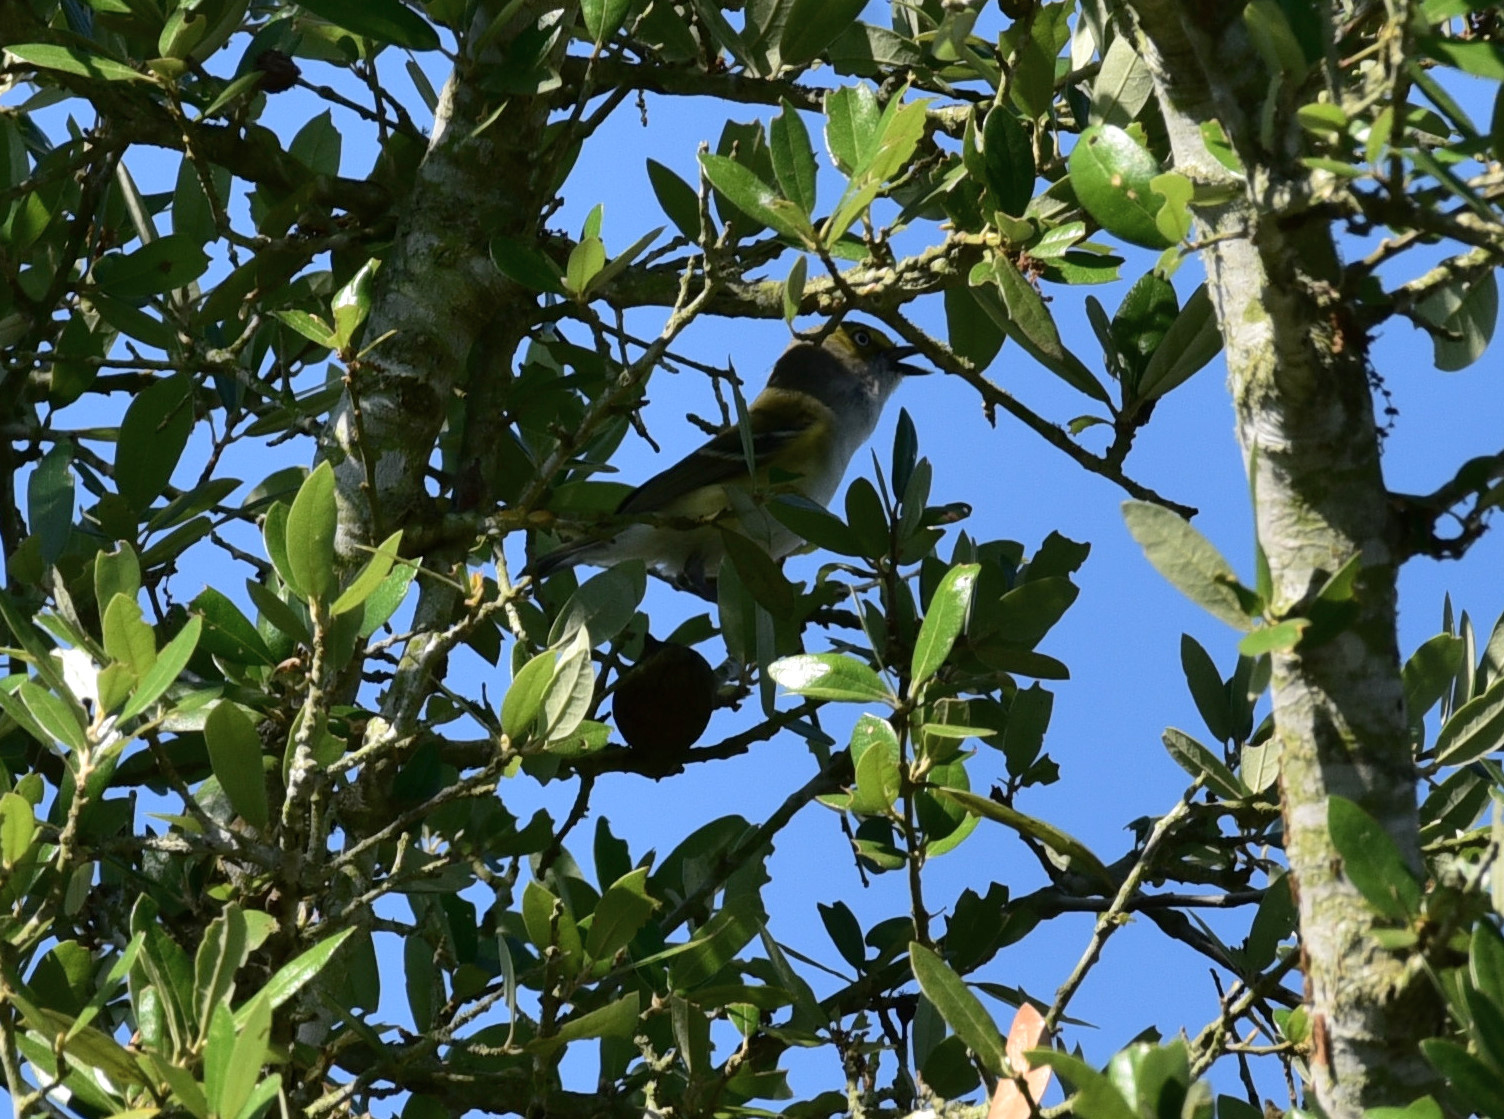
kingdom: Animalia
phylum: Chordata
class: Aves
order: Passeriformes
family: Vireonidae
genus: Vireo
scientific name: Vireo griseus
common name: White-eyed vireo
